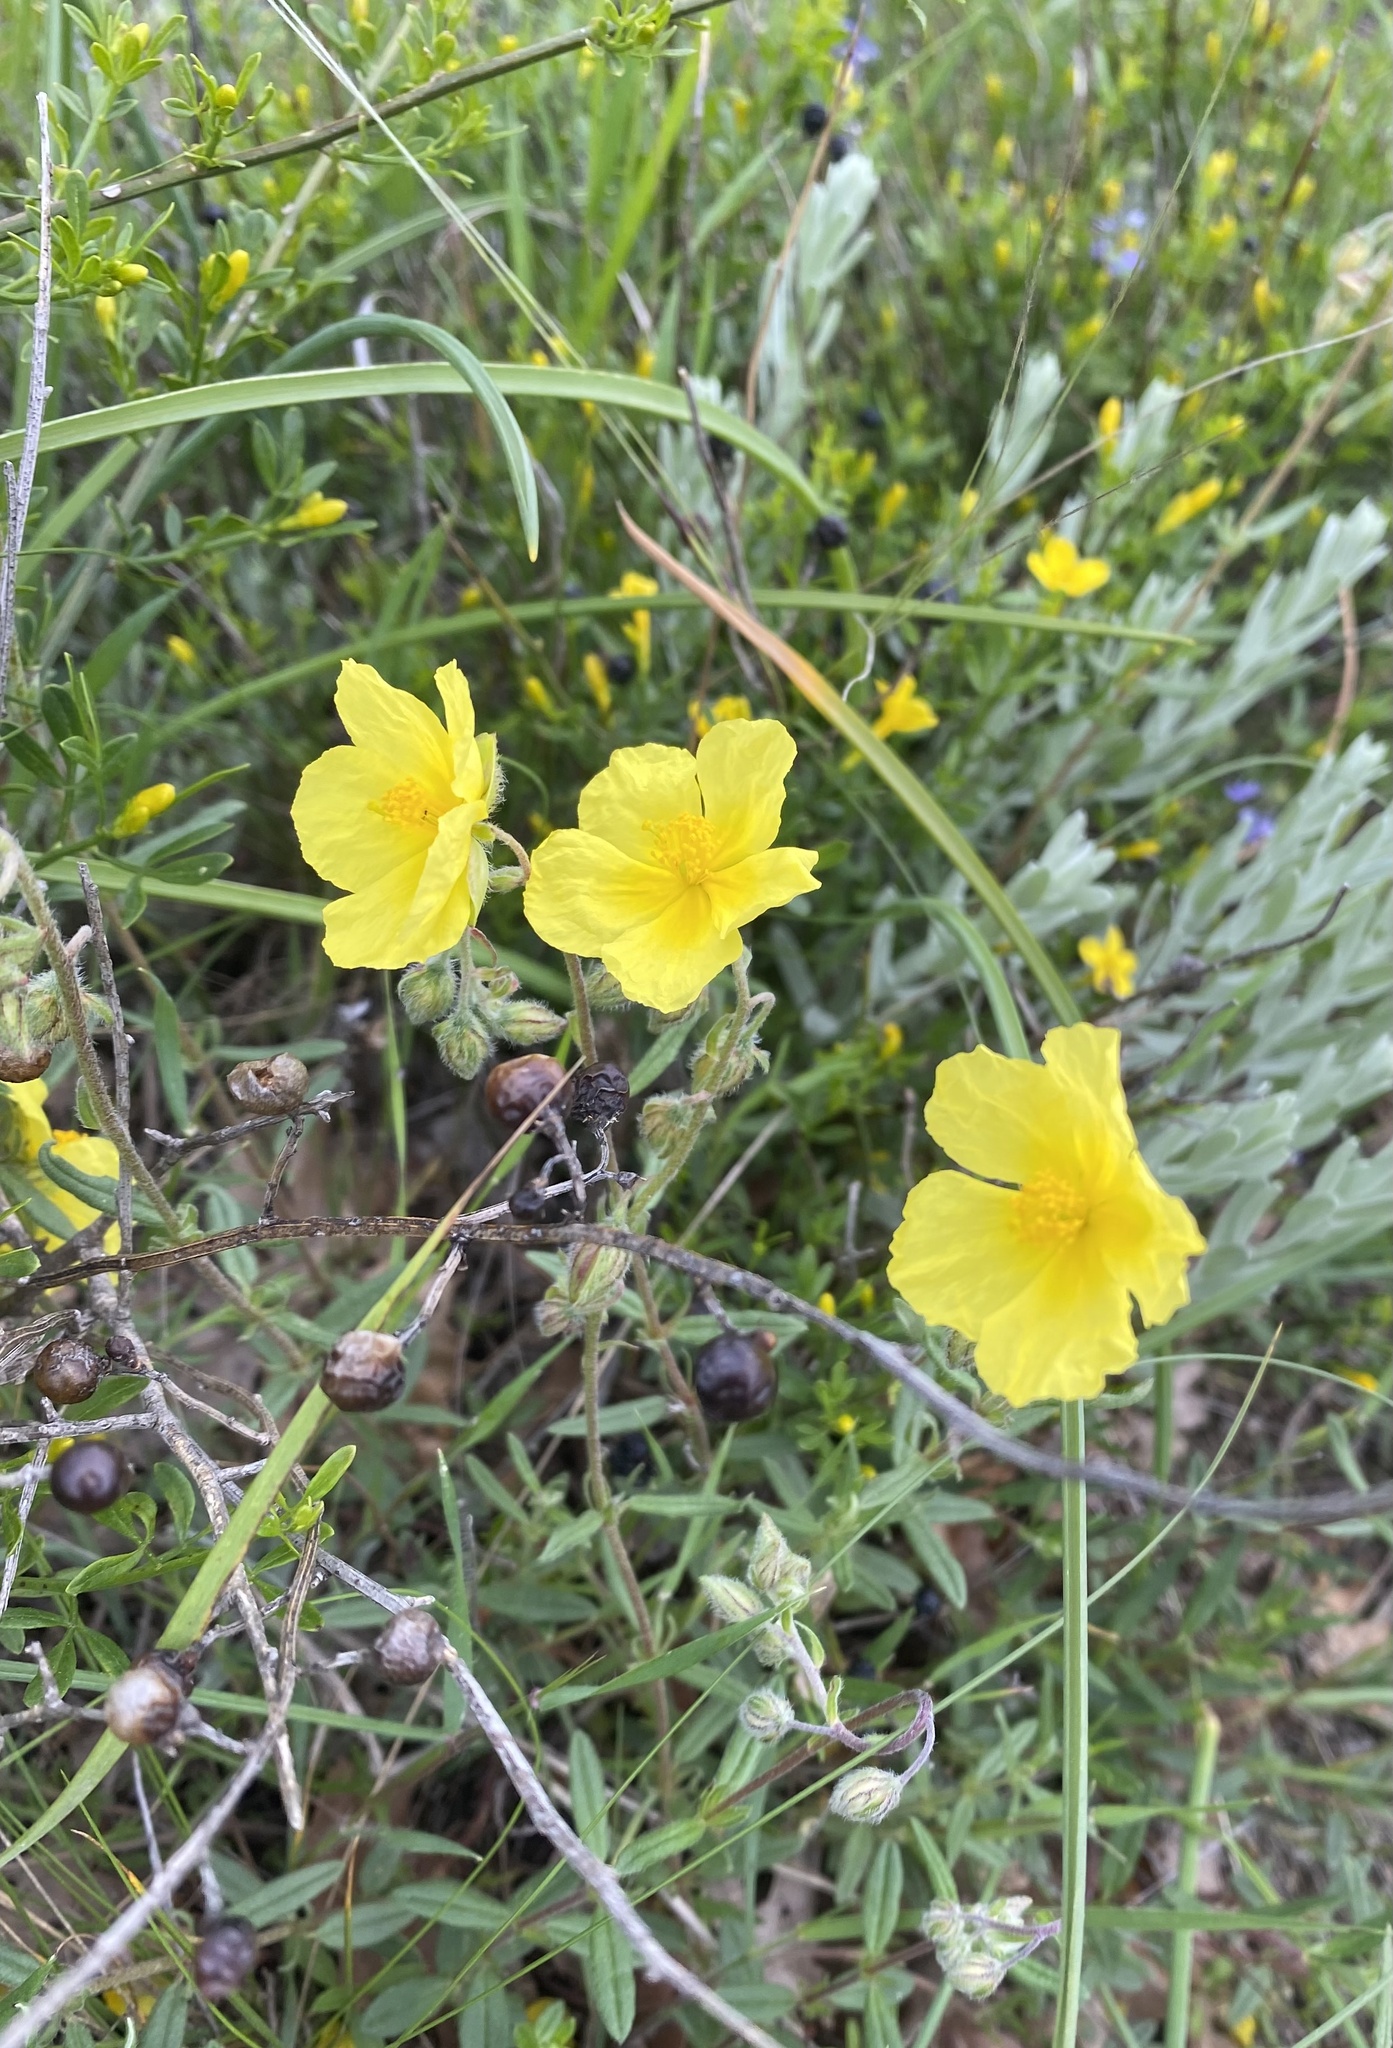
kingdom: Plantae
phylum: Tracheophyta
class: Magnoliopsida
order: Malvales
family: Cistaceae
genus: Helianthemum
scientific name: Helianthemum nummularium
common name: Common rock-rose
